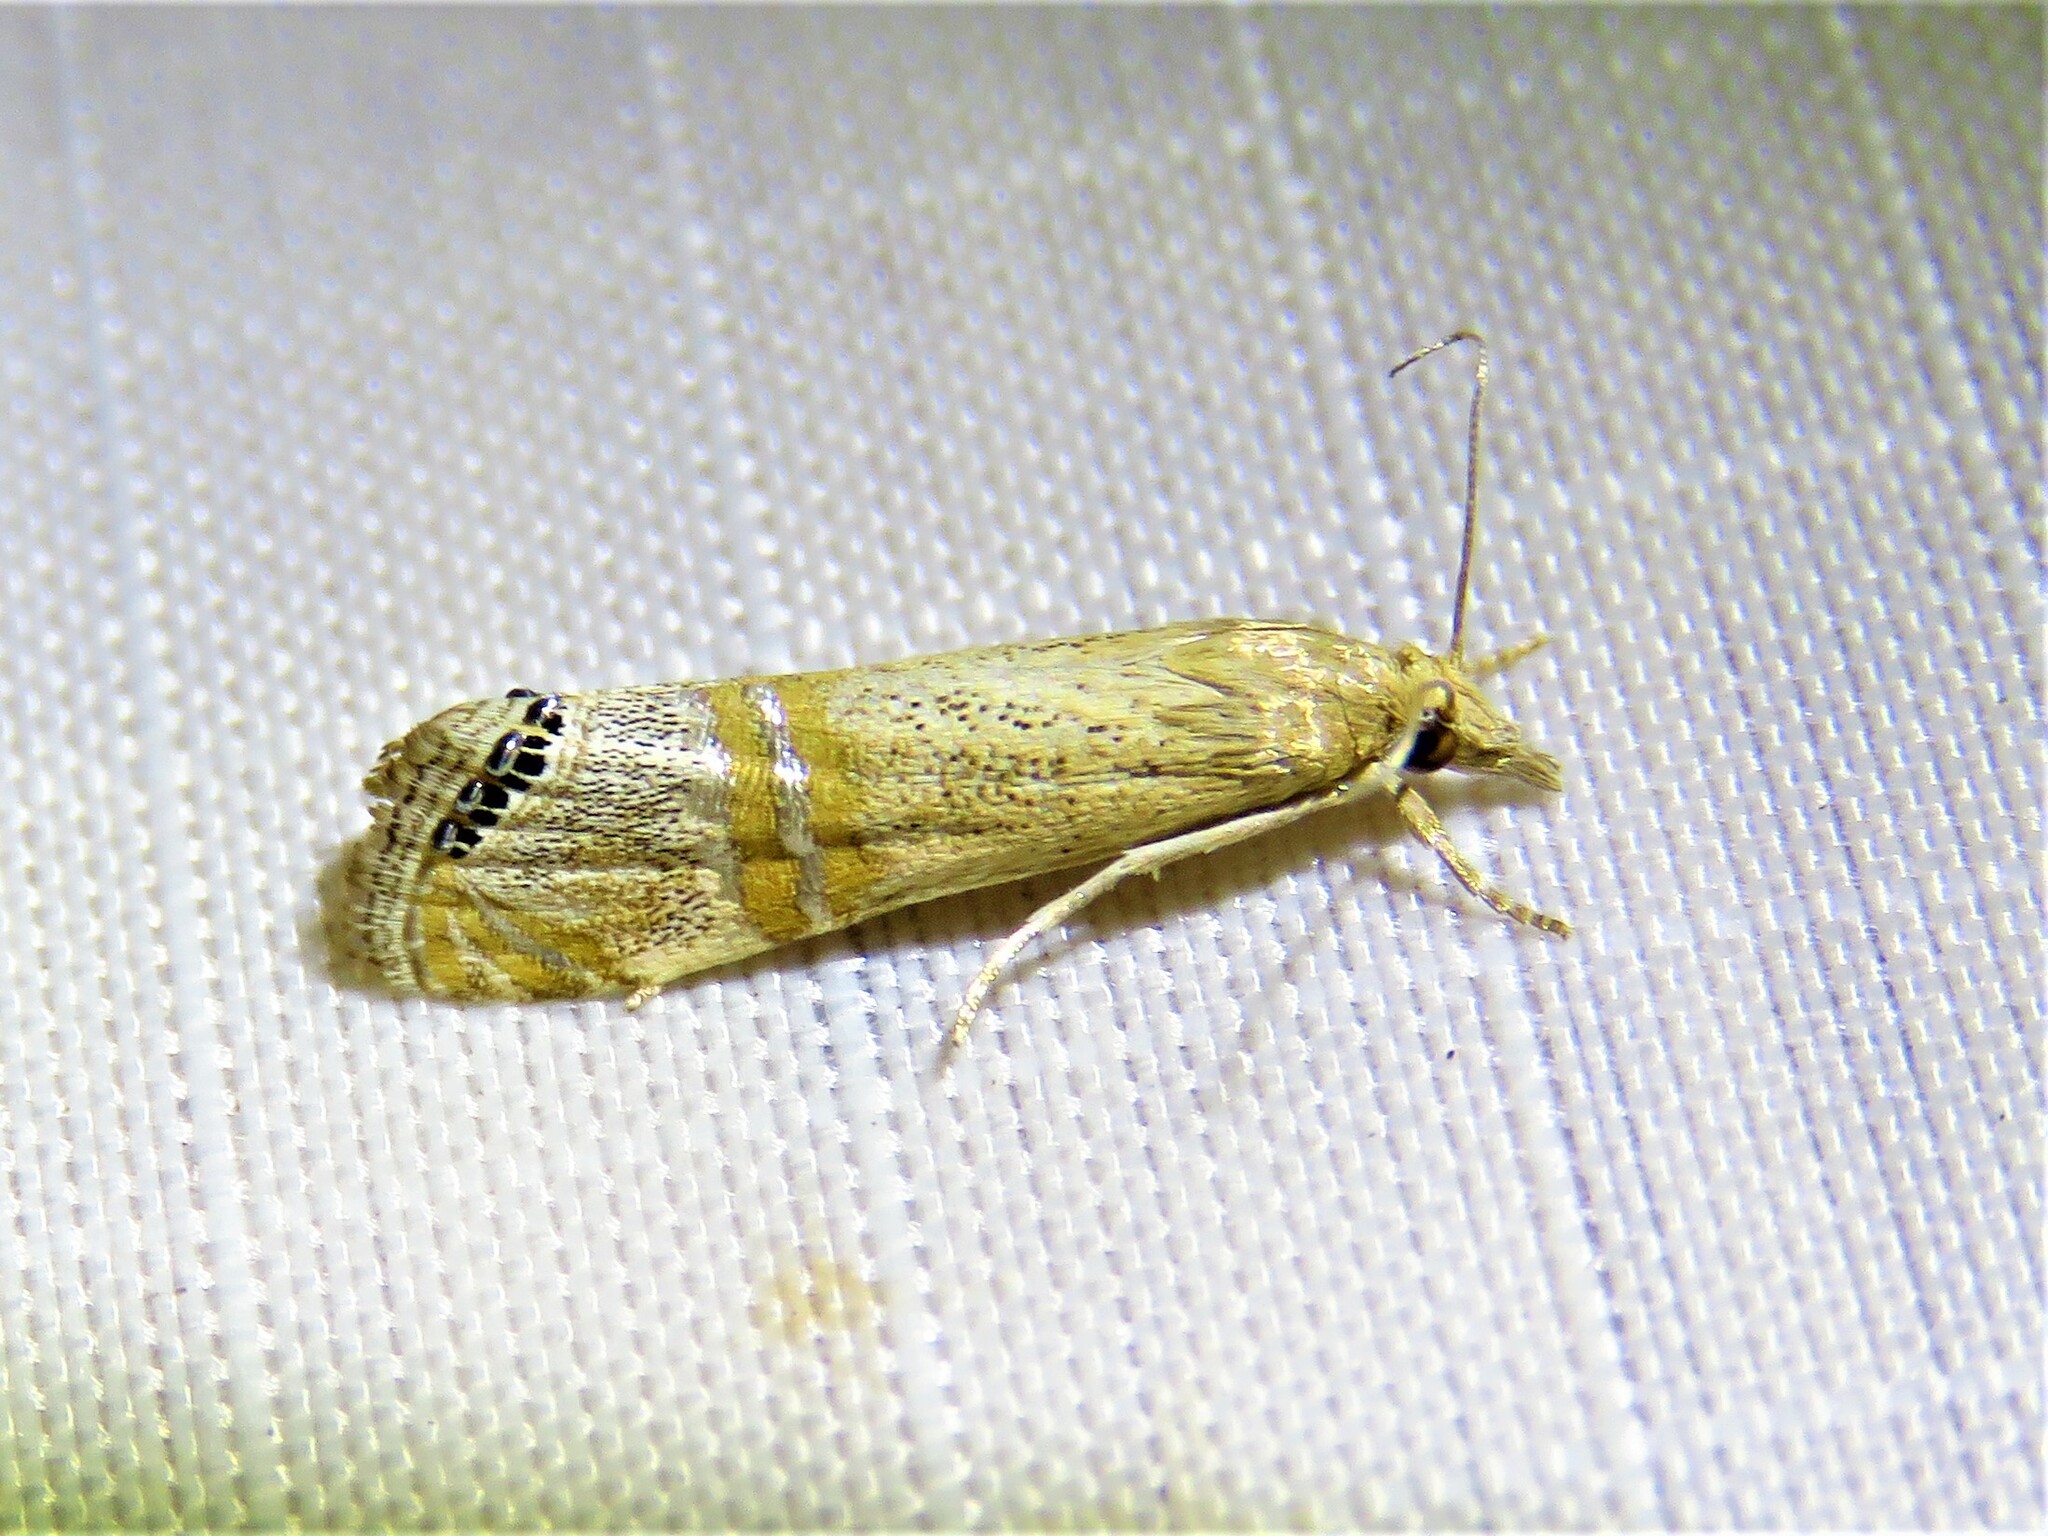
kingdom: Animalia
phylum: Arthropoda
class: Insecta
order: Lepidoptera
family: Crambidae
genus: Euchromius
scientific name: Euchromius ocellea
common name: Necklace veneer moth
